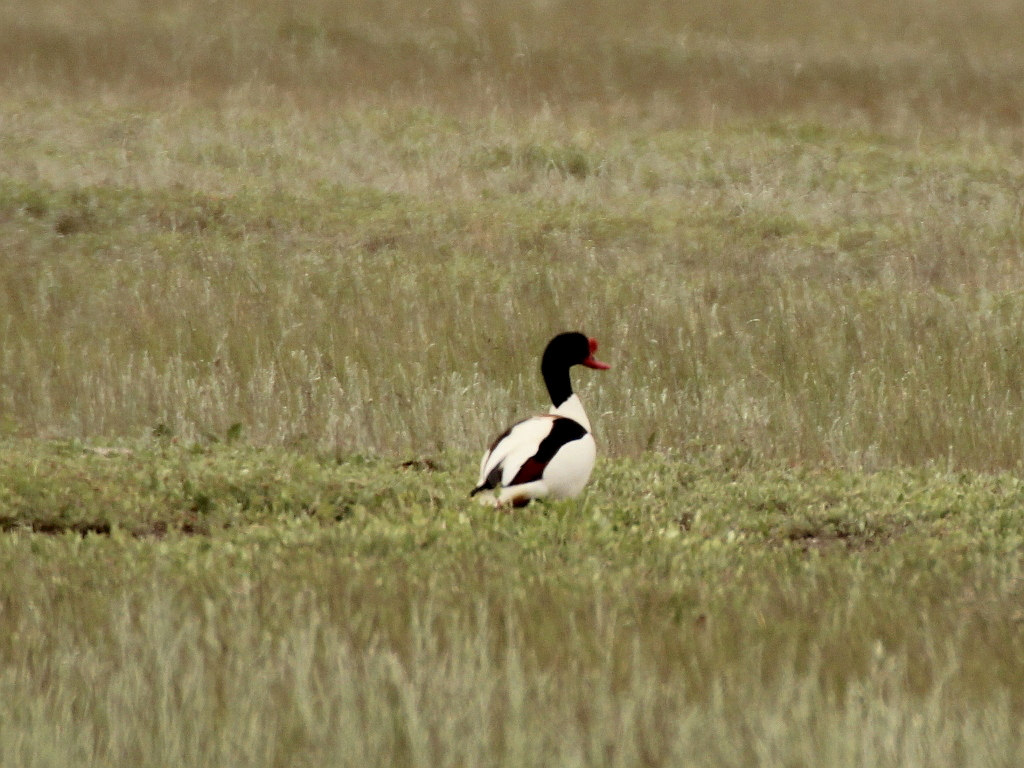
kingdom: Animalia
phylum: Chordata
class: Aves
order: Anseriformes
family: Anatidae
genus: Tadorna
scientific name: Tadorna tadorna
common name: Common shelduck
